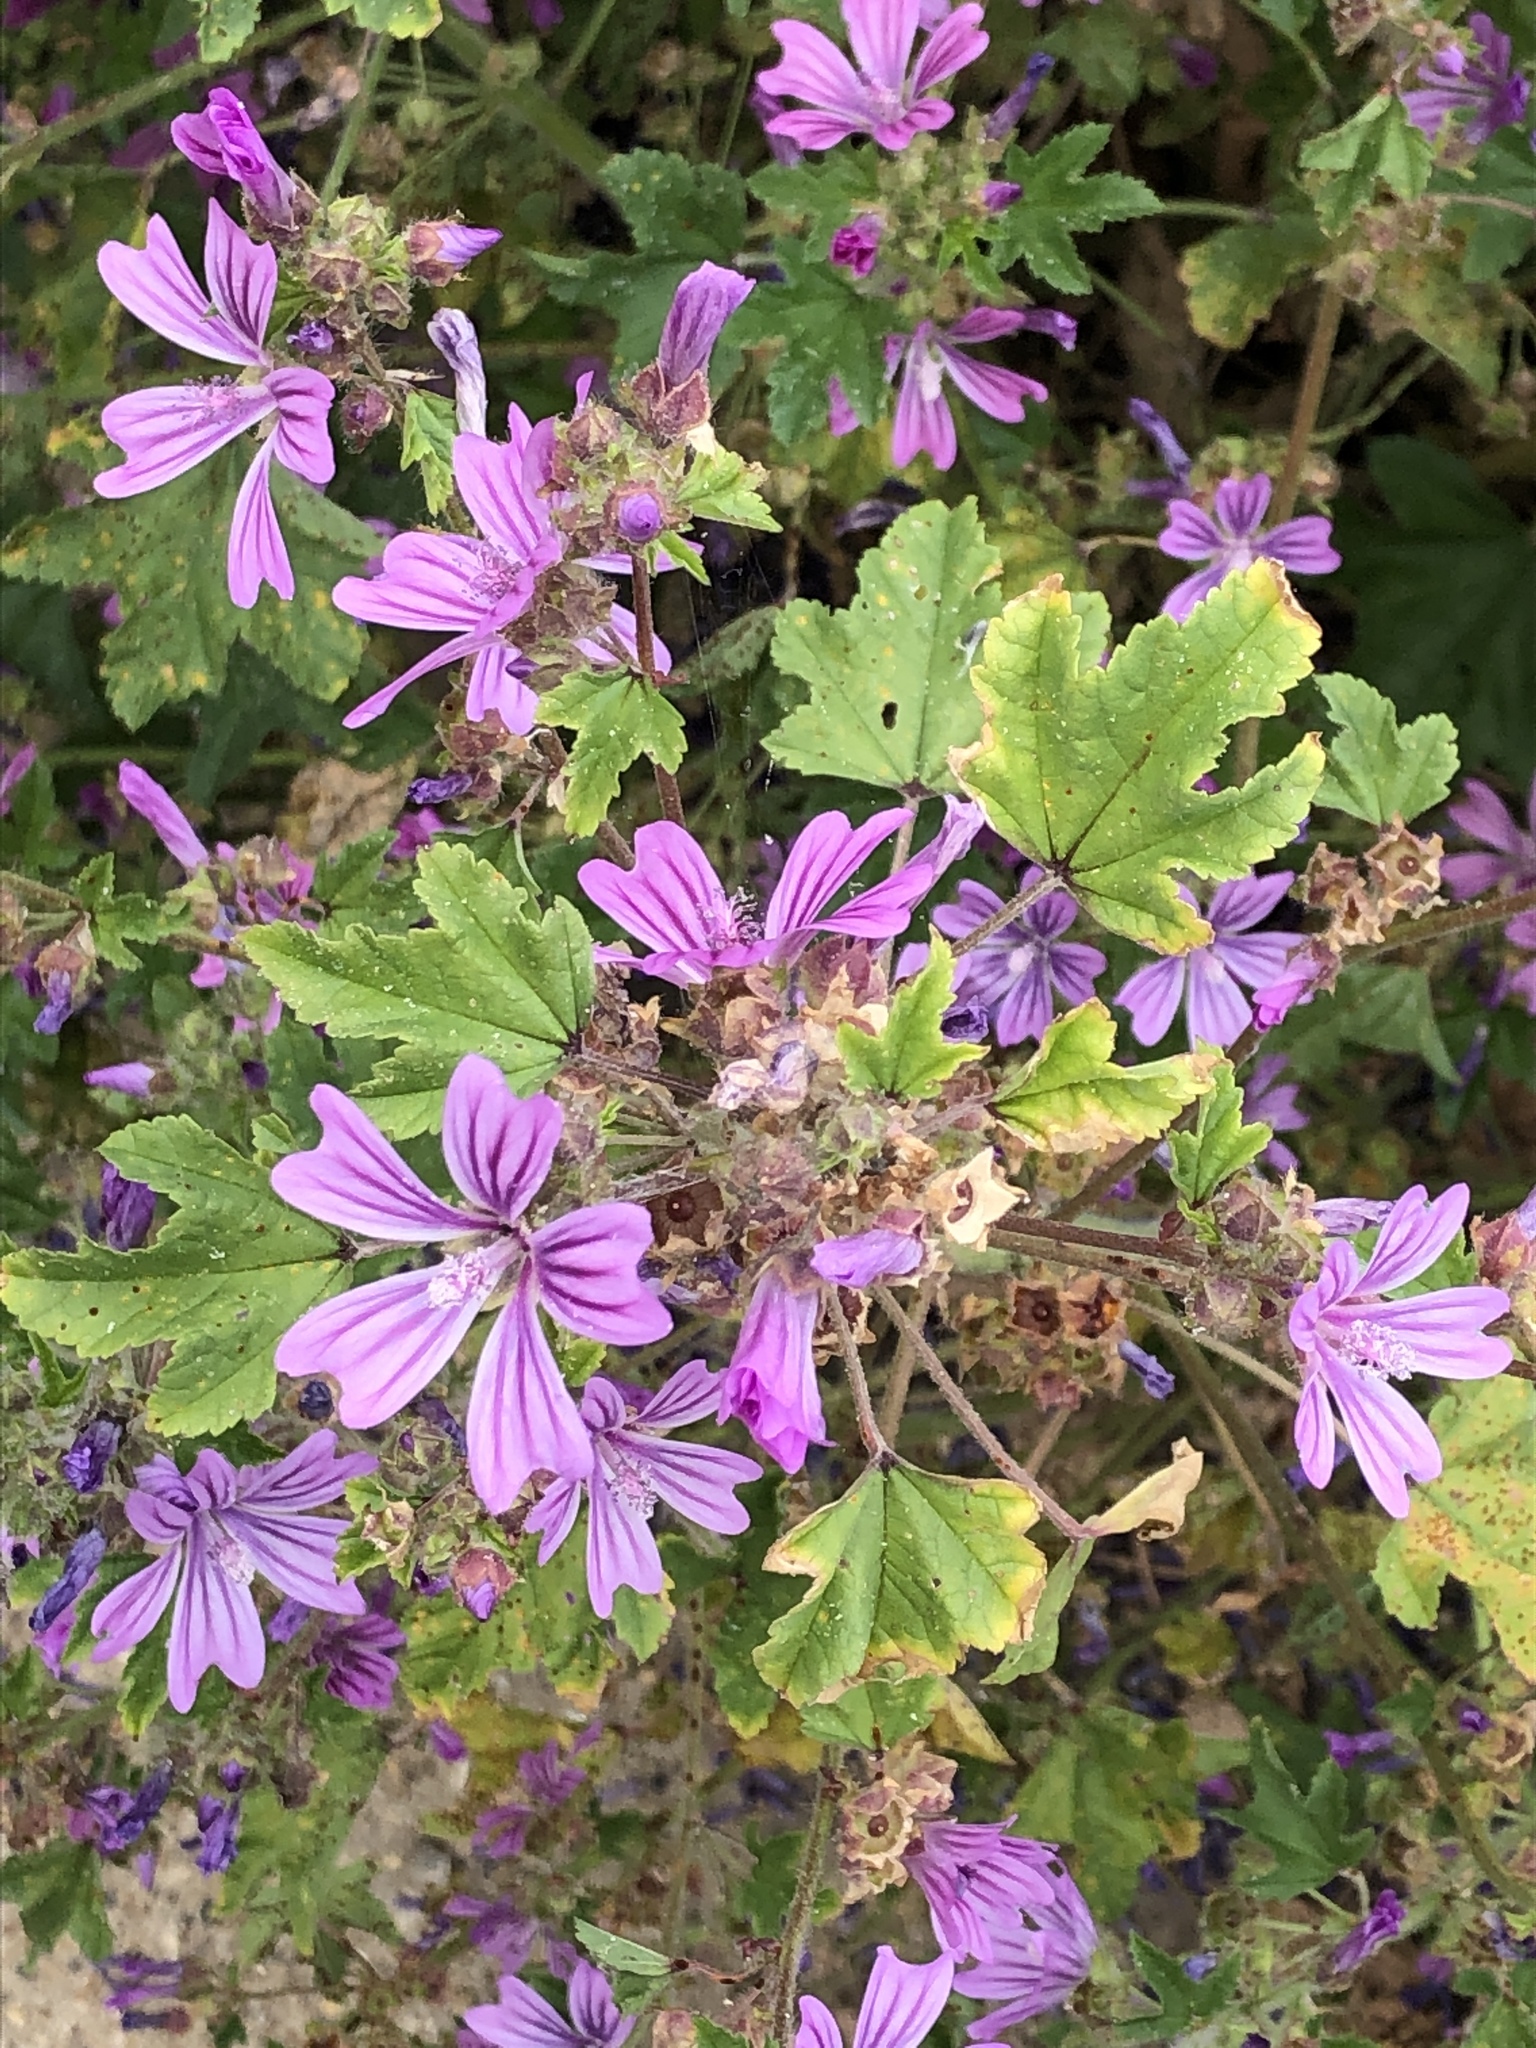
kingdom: Plantae
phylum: Tracheophyta
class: Magnoliopsida
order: Malvales
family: Malvaceae
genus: Malva
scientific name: Malva sylvestris
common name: Common mallow
